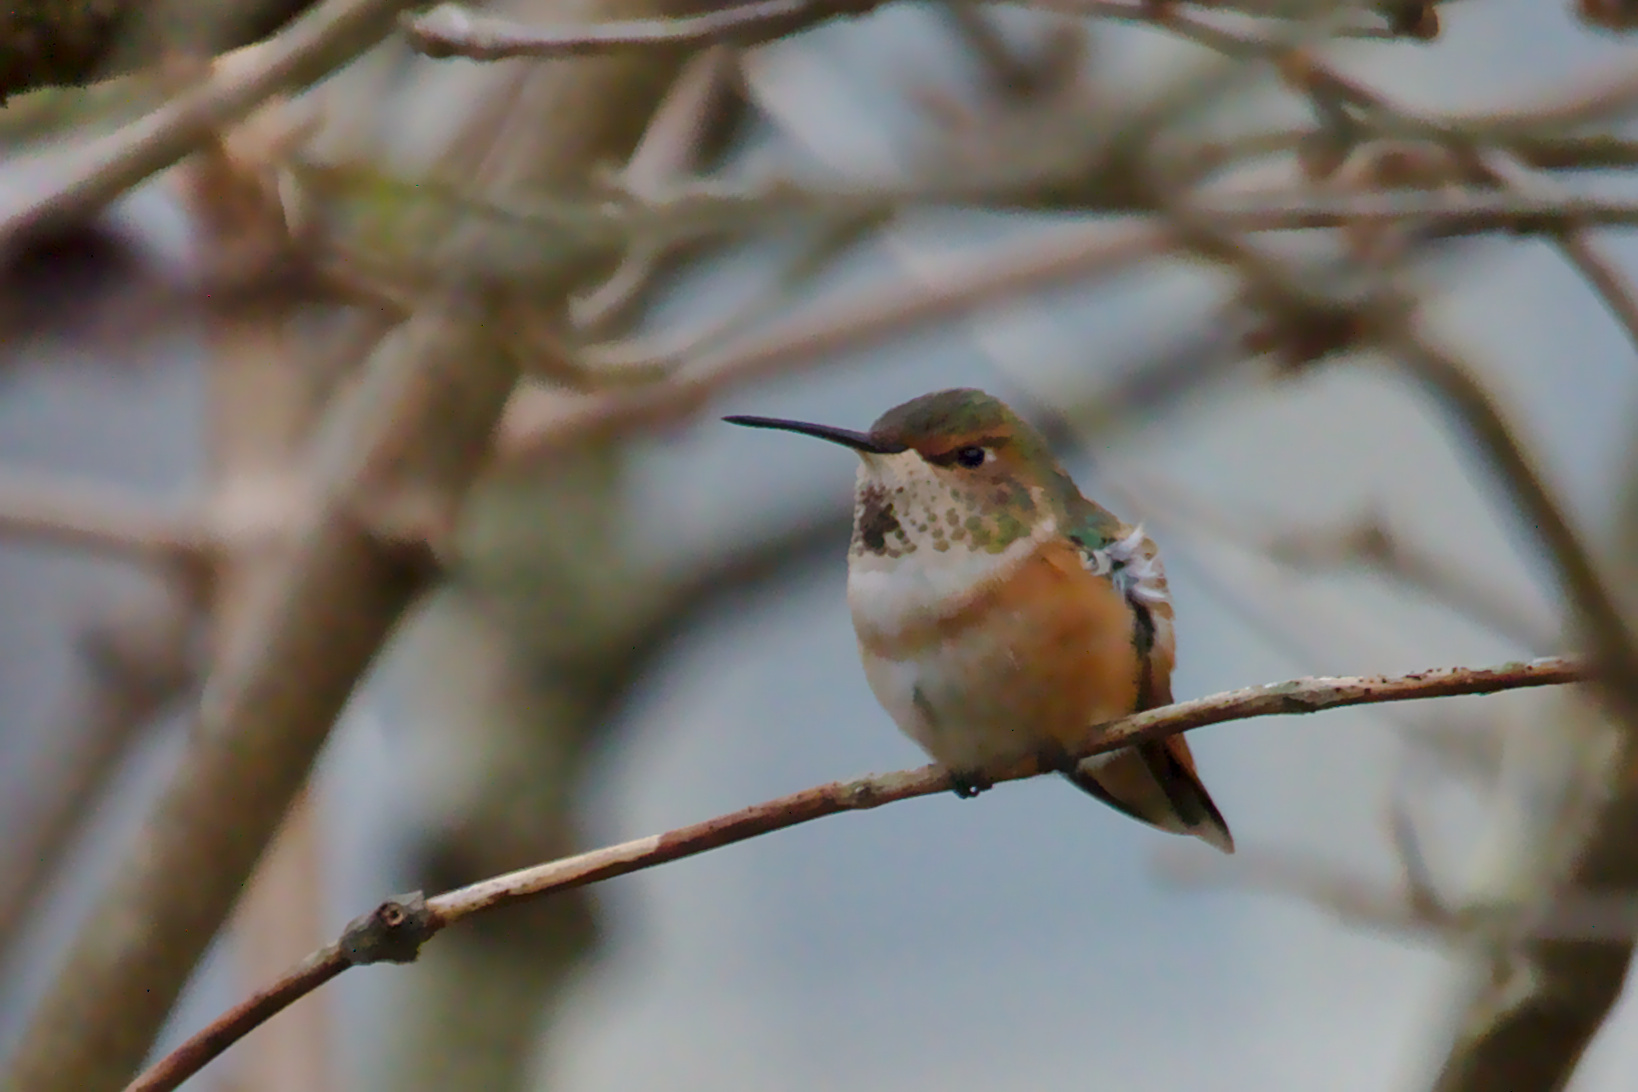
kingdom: Animalia
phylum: Chordata
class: Aves
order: Apodiformes
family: Trochilidae
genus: Selasphorus
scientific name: Selasphorus rufus
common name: Rufous hummingbird
